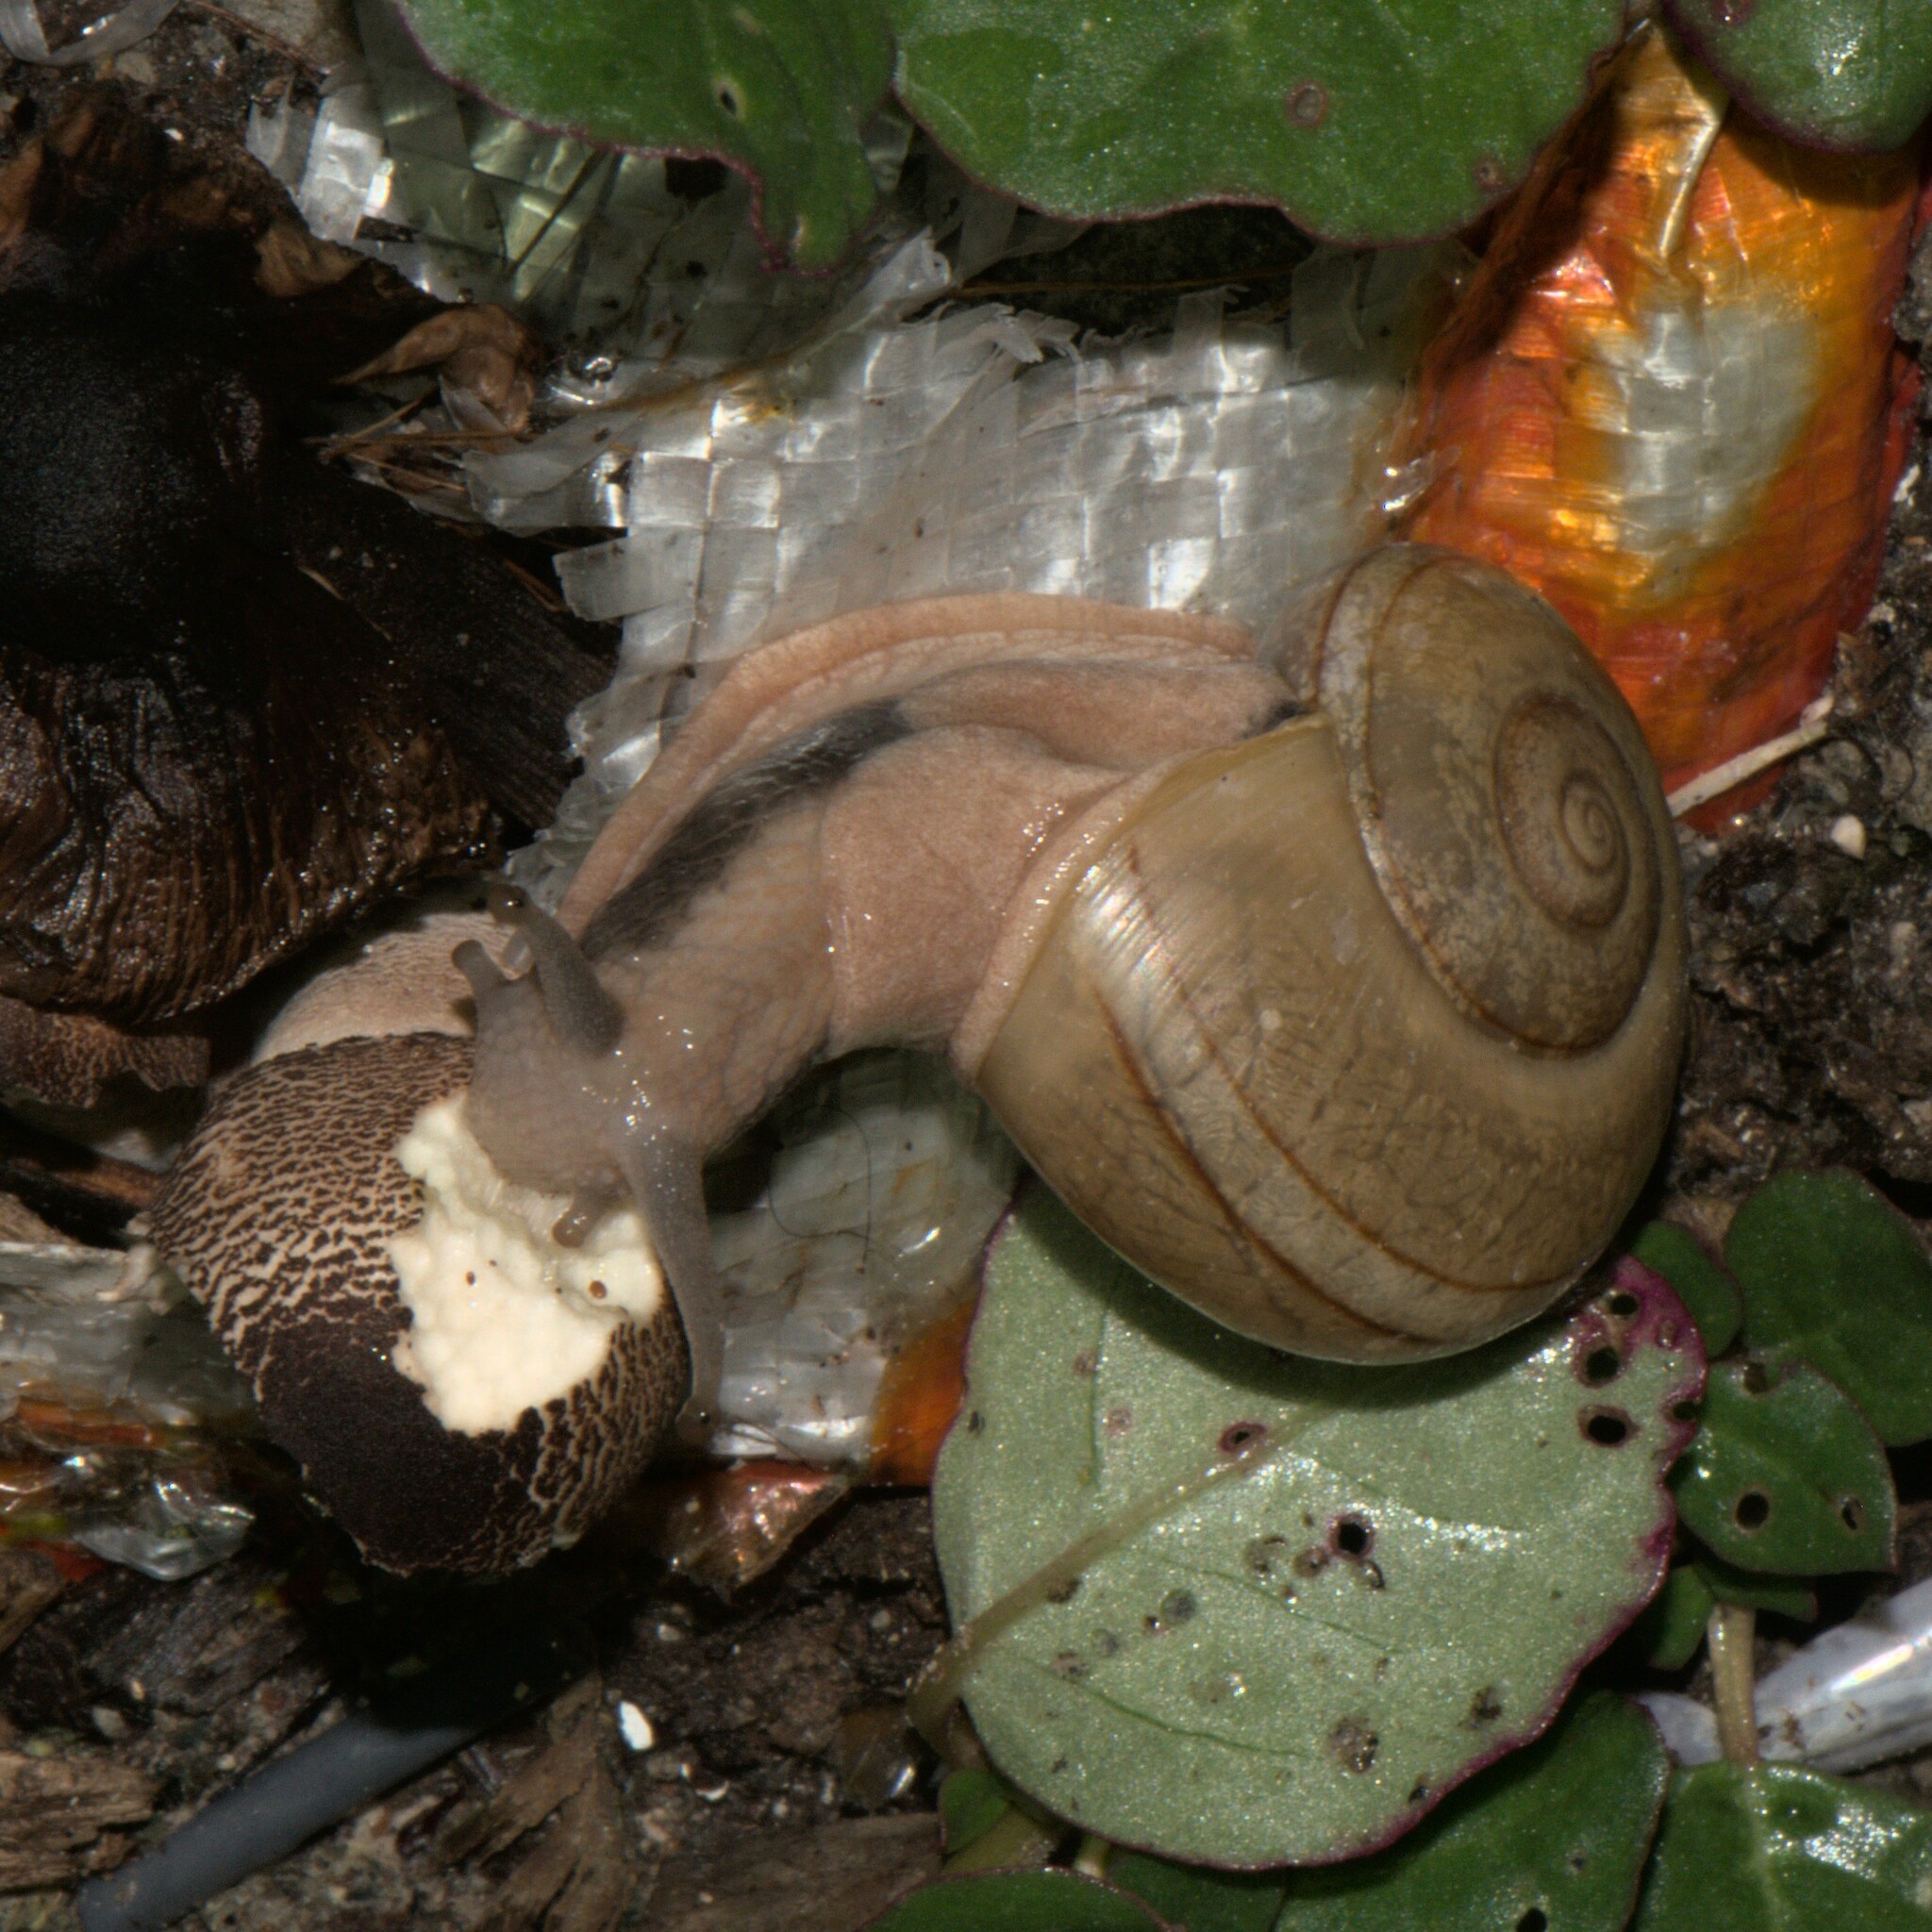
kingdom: Animalia
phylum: Mollusca
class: Gastropoda
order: Stylommatophora
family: Ariophantidae
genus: Ariophanta
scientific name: Ariophanta exilis
